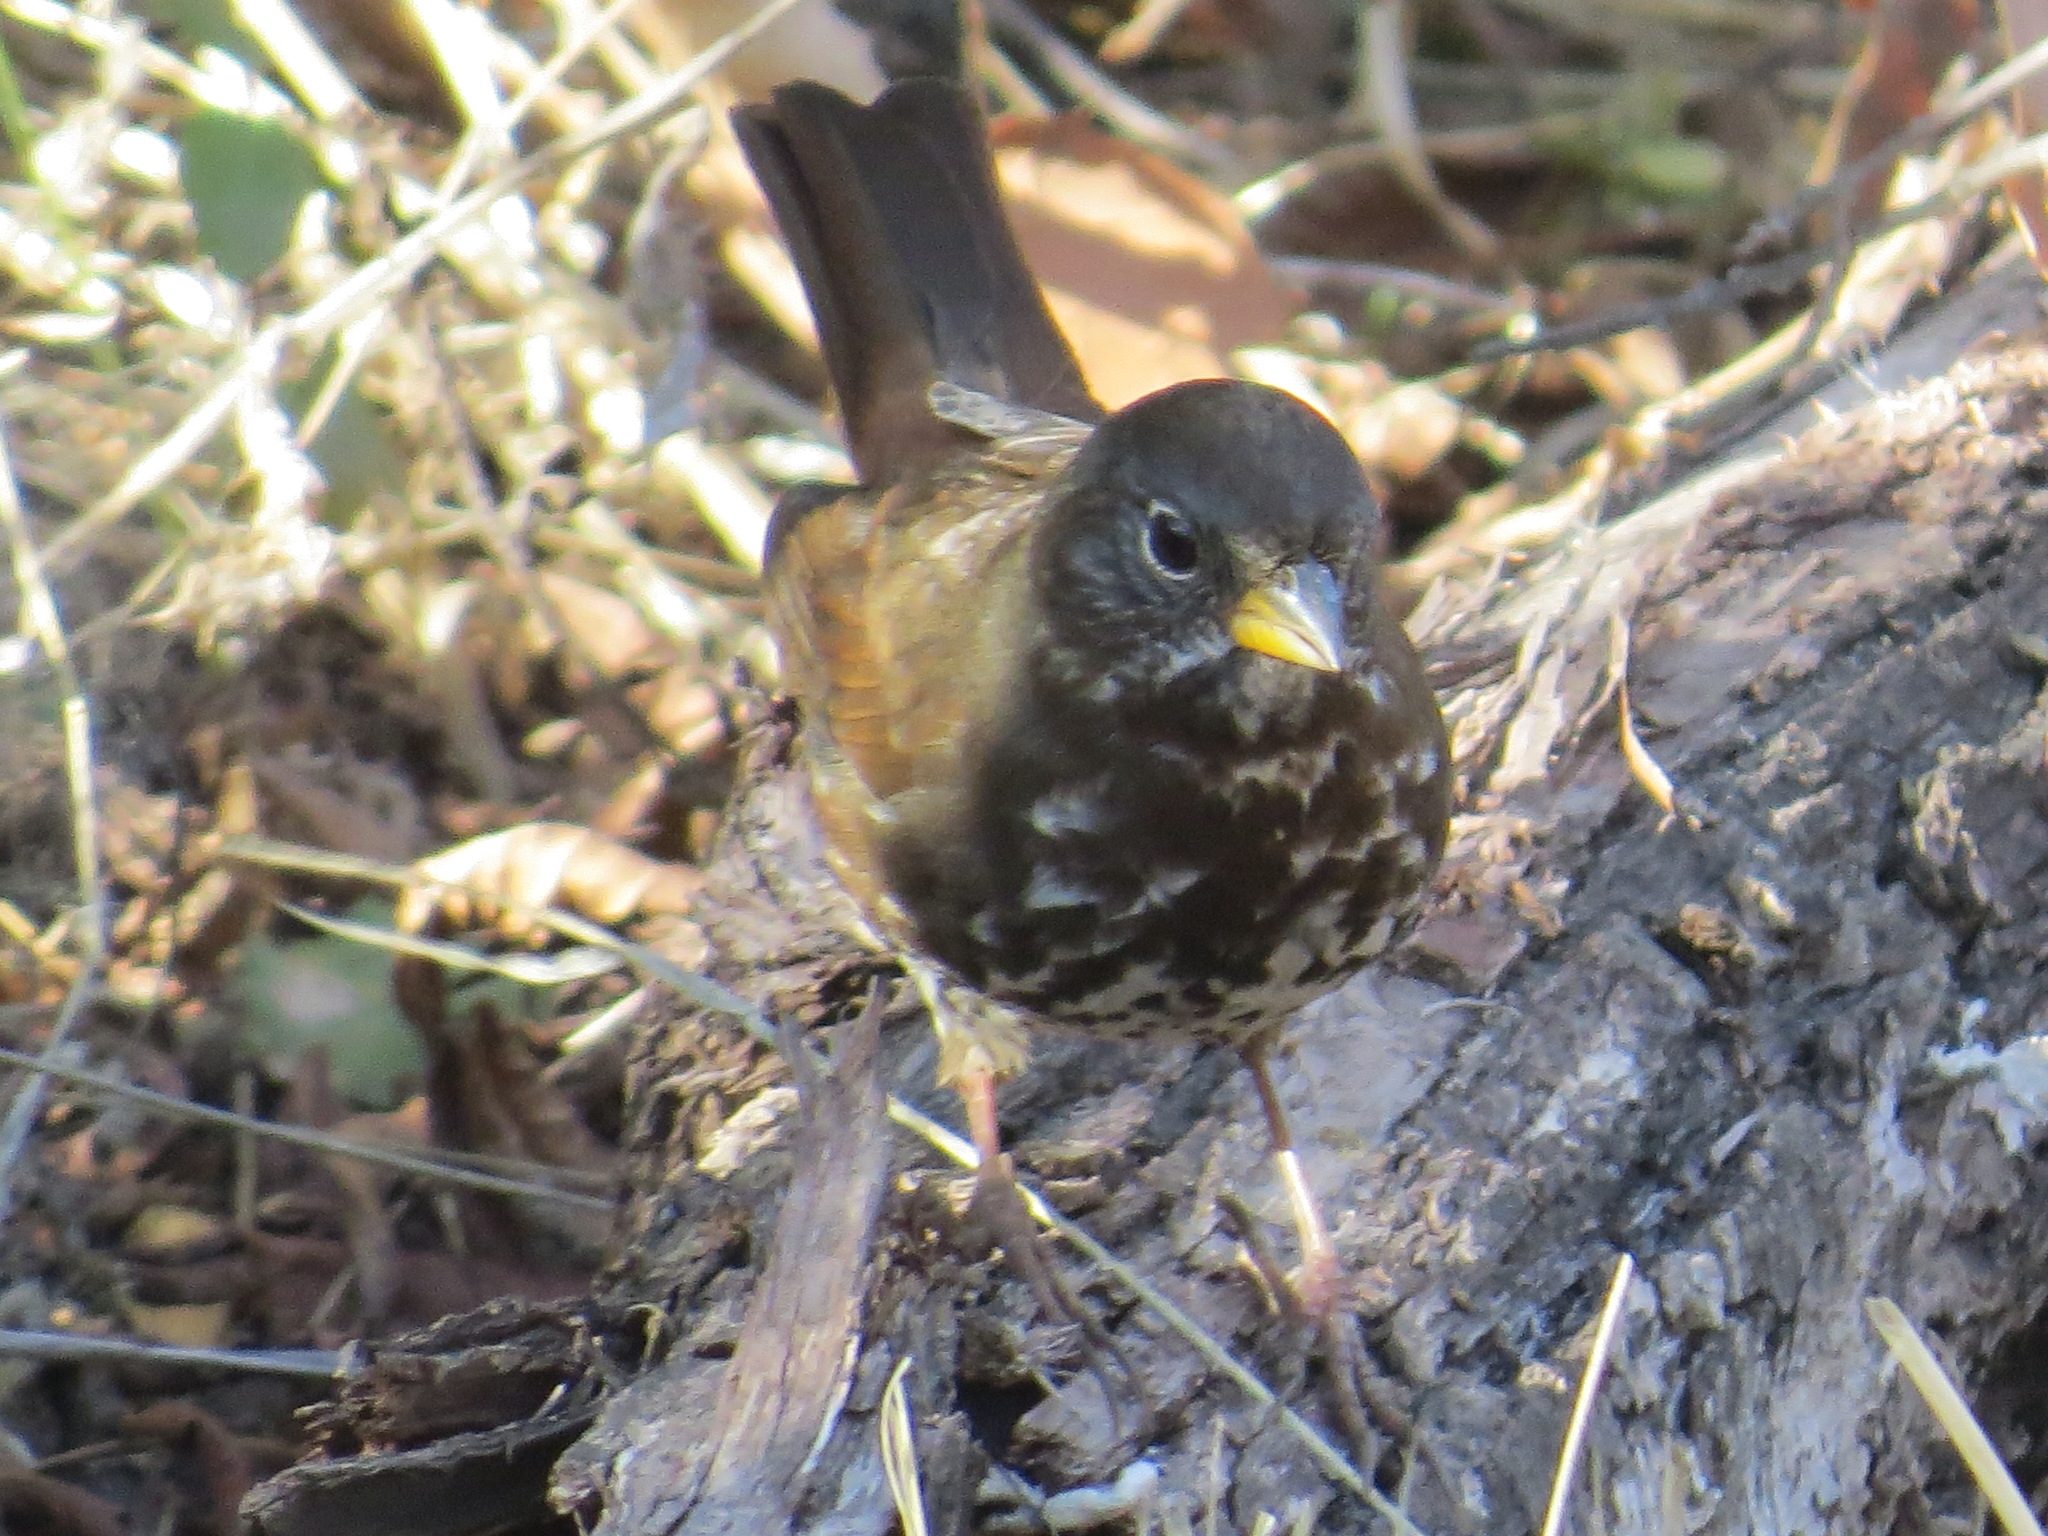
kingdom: Animalia
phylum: Chordata
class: Aves
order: Passeriformes
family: Passerellidae
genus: Passerella
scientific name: Passerella iliaca
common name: Fox sparrow
